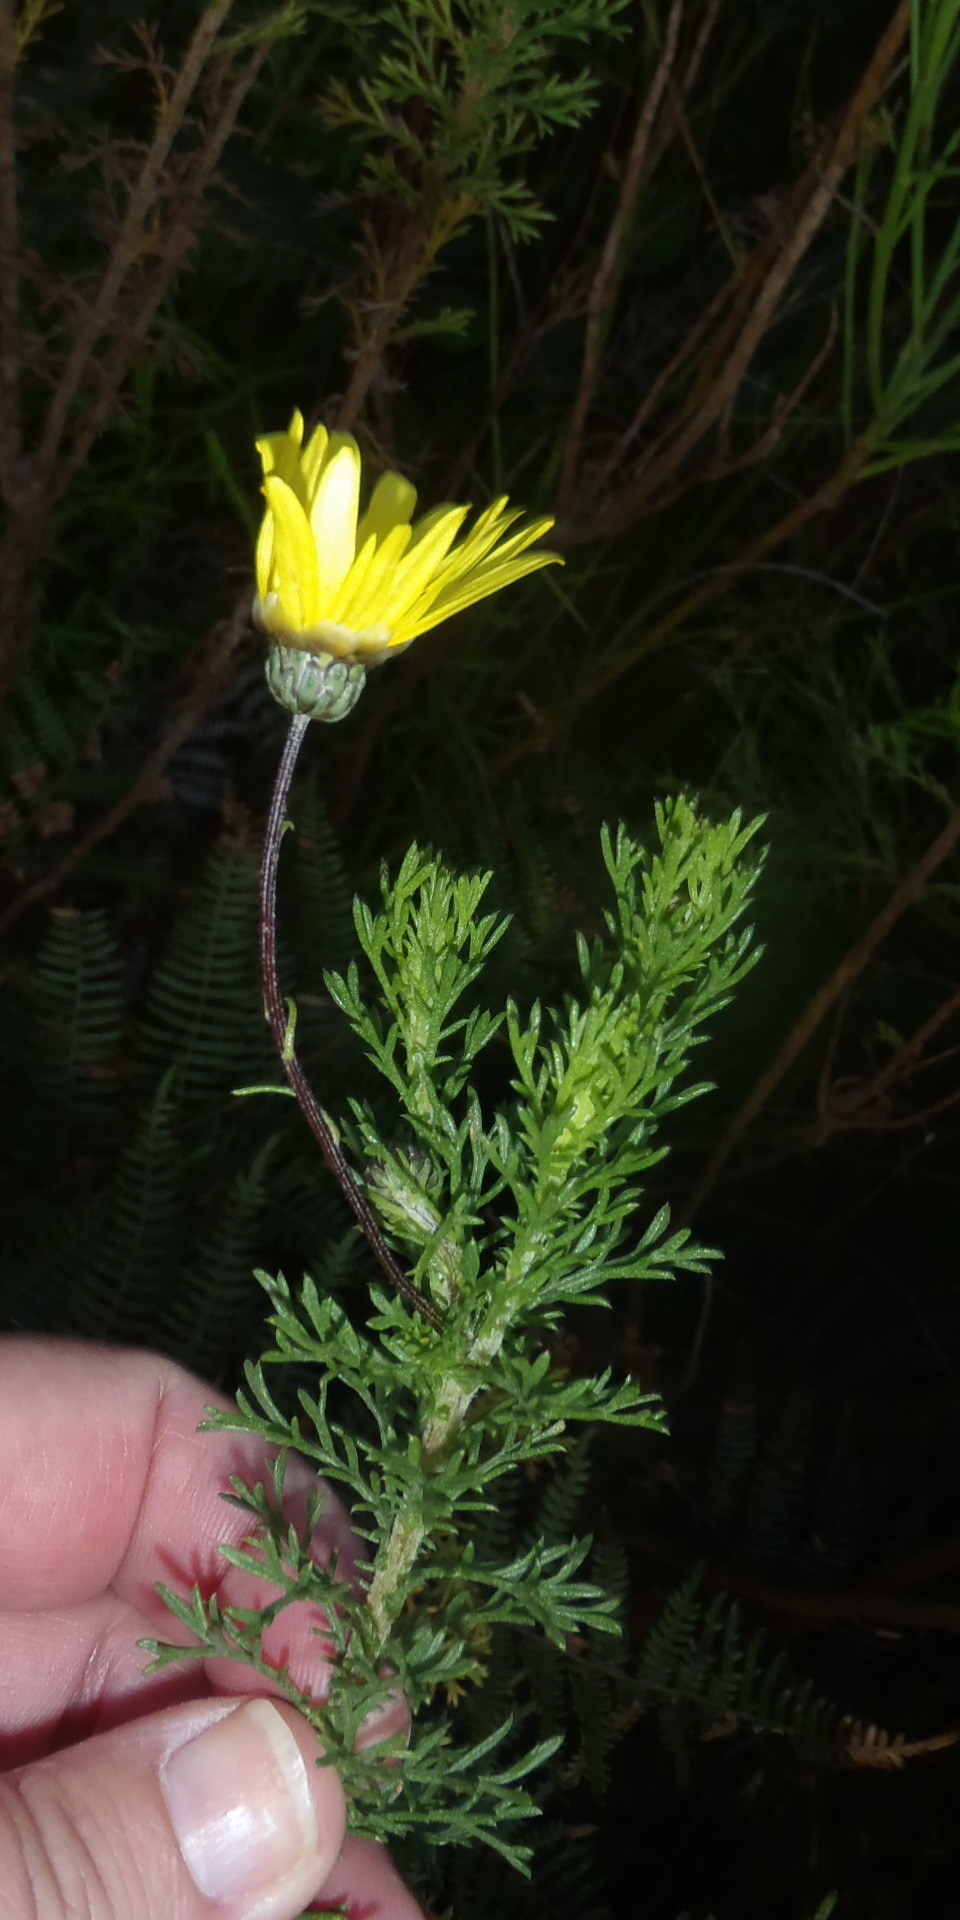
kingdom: Plantae
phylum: Tracheophyta
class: Magnoliopsida
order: Asterales
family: Asteraceae
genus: Ursinia
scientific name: Ursinia anethoides
